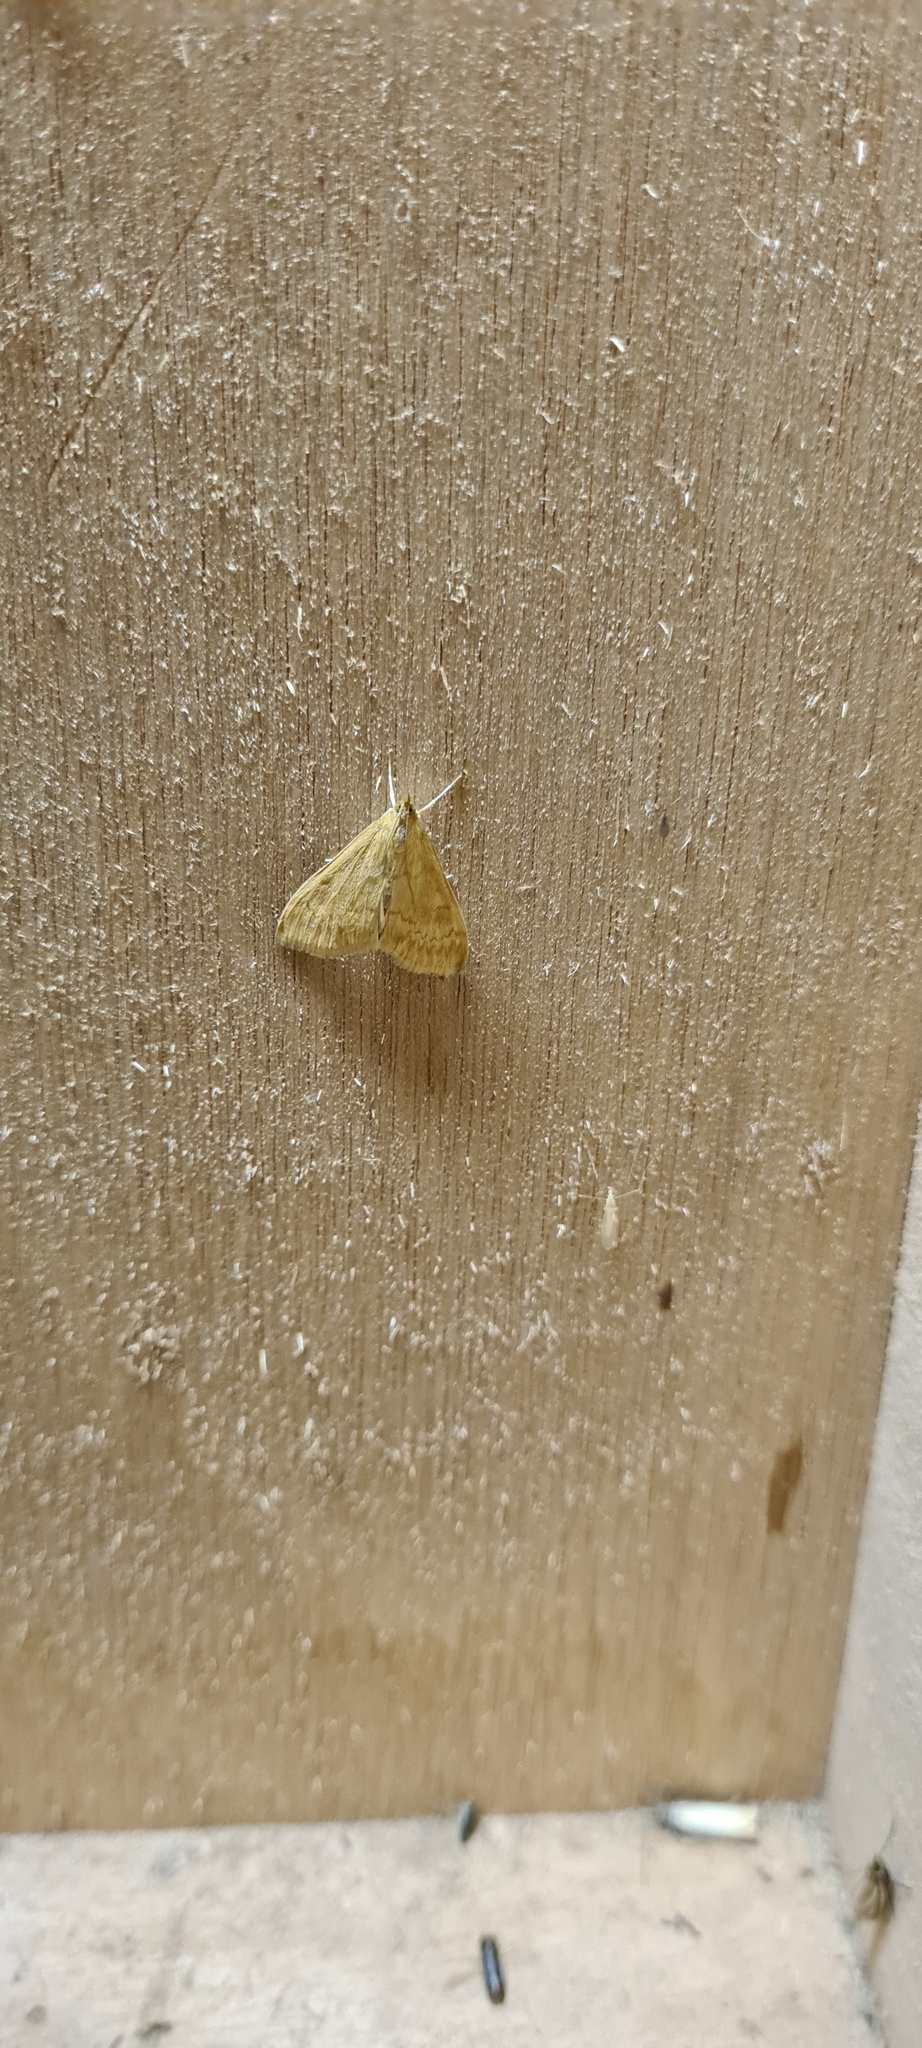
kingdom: Animalia
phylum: Arthropoda
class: Insecta
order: Lepidoptera
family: Crambidae
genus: Ostrinia
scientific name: Ostrinia nubilalis
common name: European corn borer
